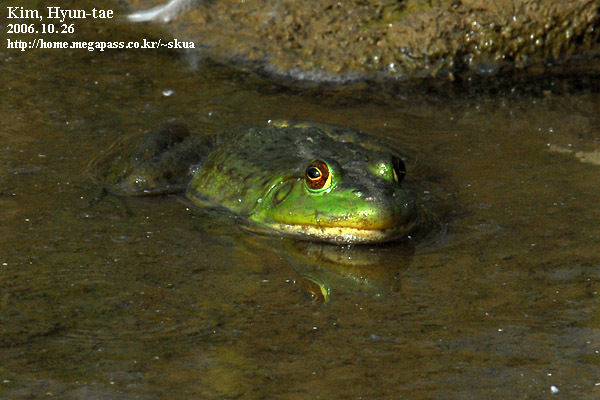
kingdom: Animalia
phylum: Chordata
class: Amphibia
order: Anura
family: Ranidae
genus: Lithobates
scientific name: Lithobates catesbeianus
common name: American bullfrog
